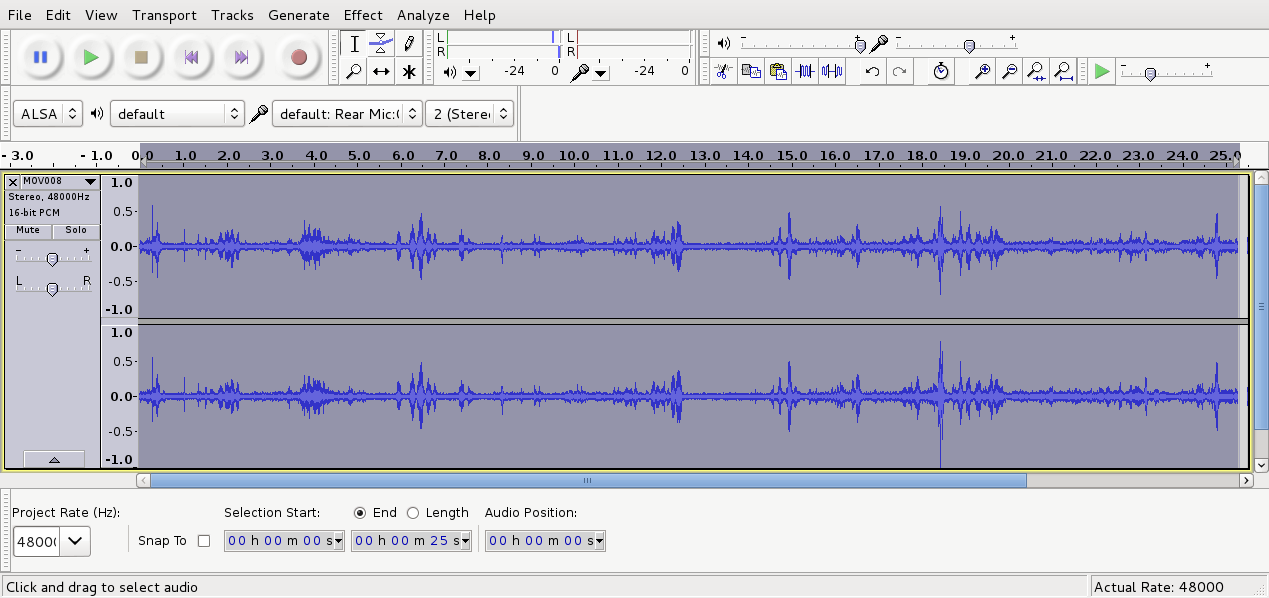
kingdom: Animalia
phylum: Chordata
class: Aves
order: Passeriformes
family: Acanthizidae
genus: Mohoua
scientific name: Mohoua albicilla
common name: Whitehead
